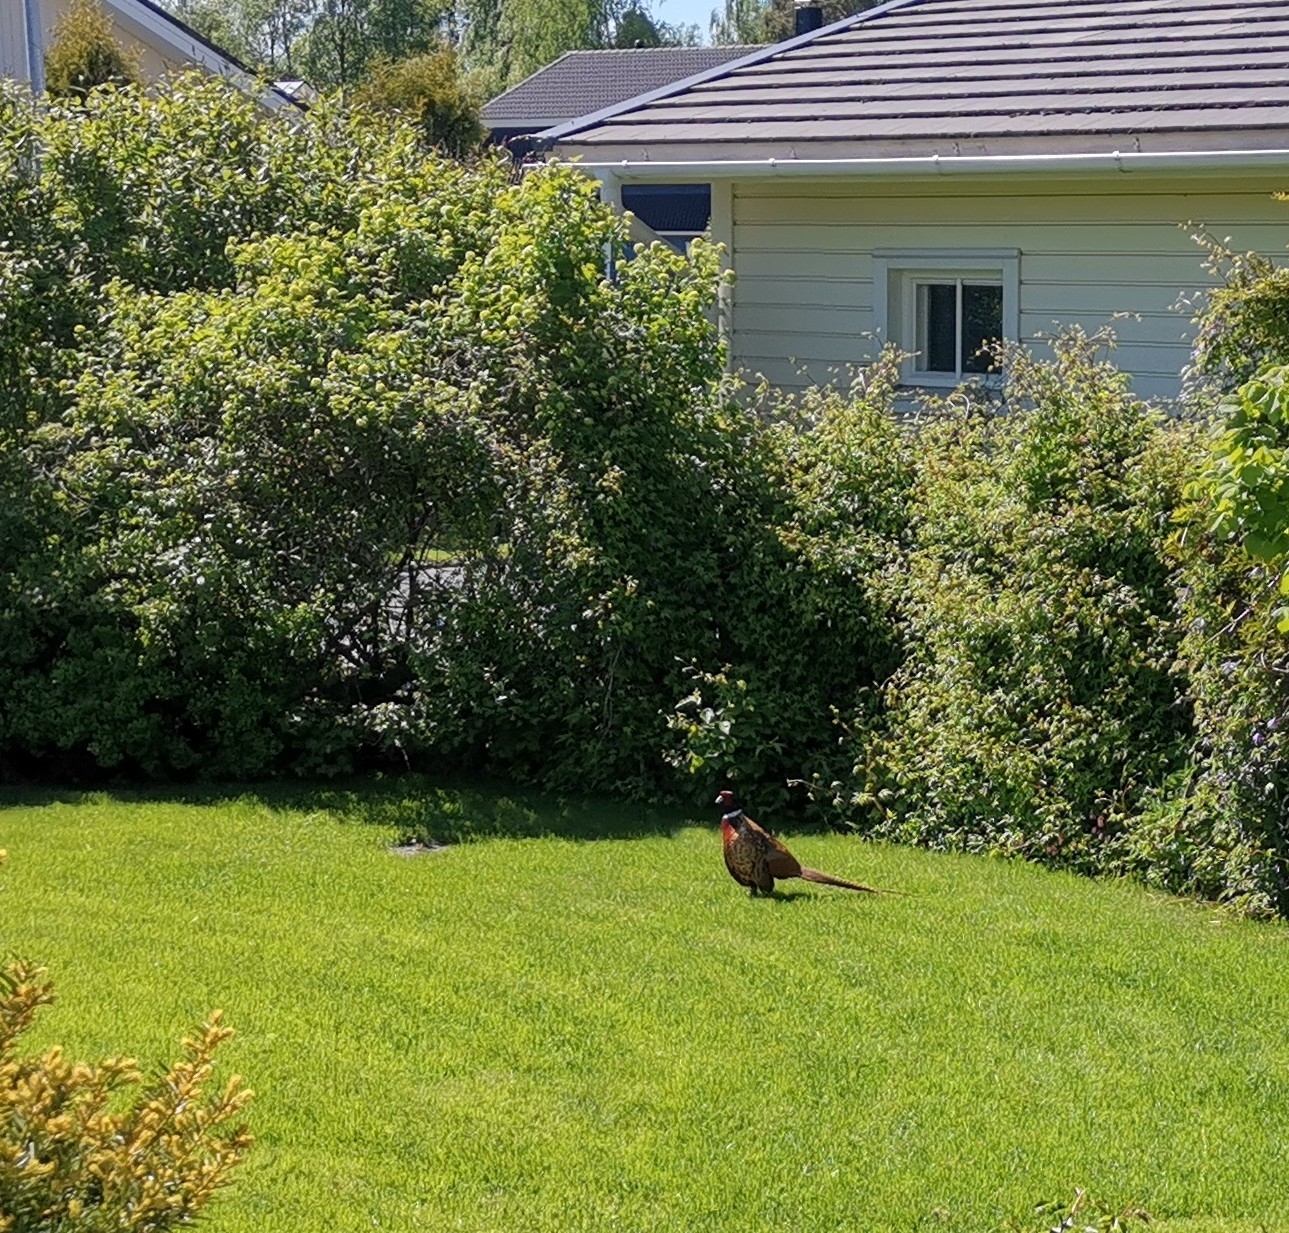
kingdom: Animalia
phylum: Chordata
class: Aves
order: Galliformes
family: Phasianidae
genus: Phasianus
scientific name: Phasianus colchicus
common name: Common pheasant
